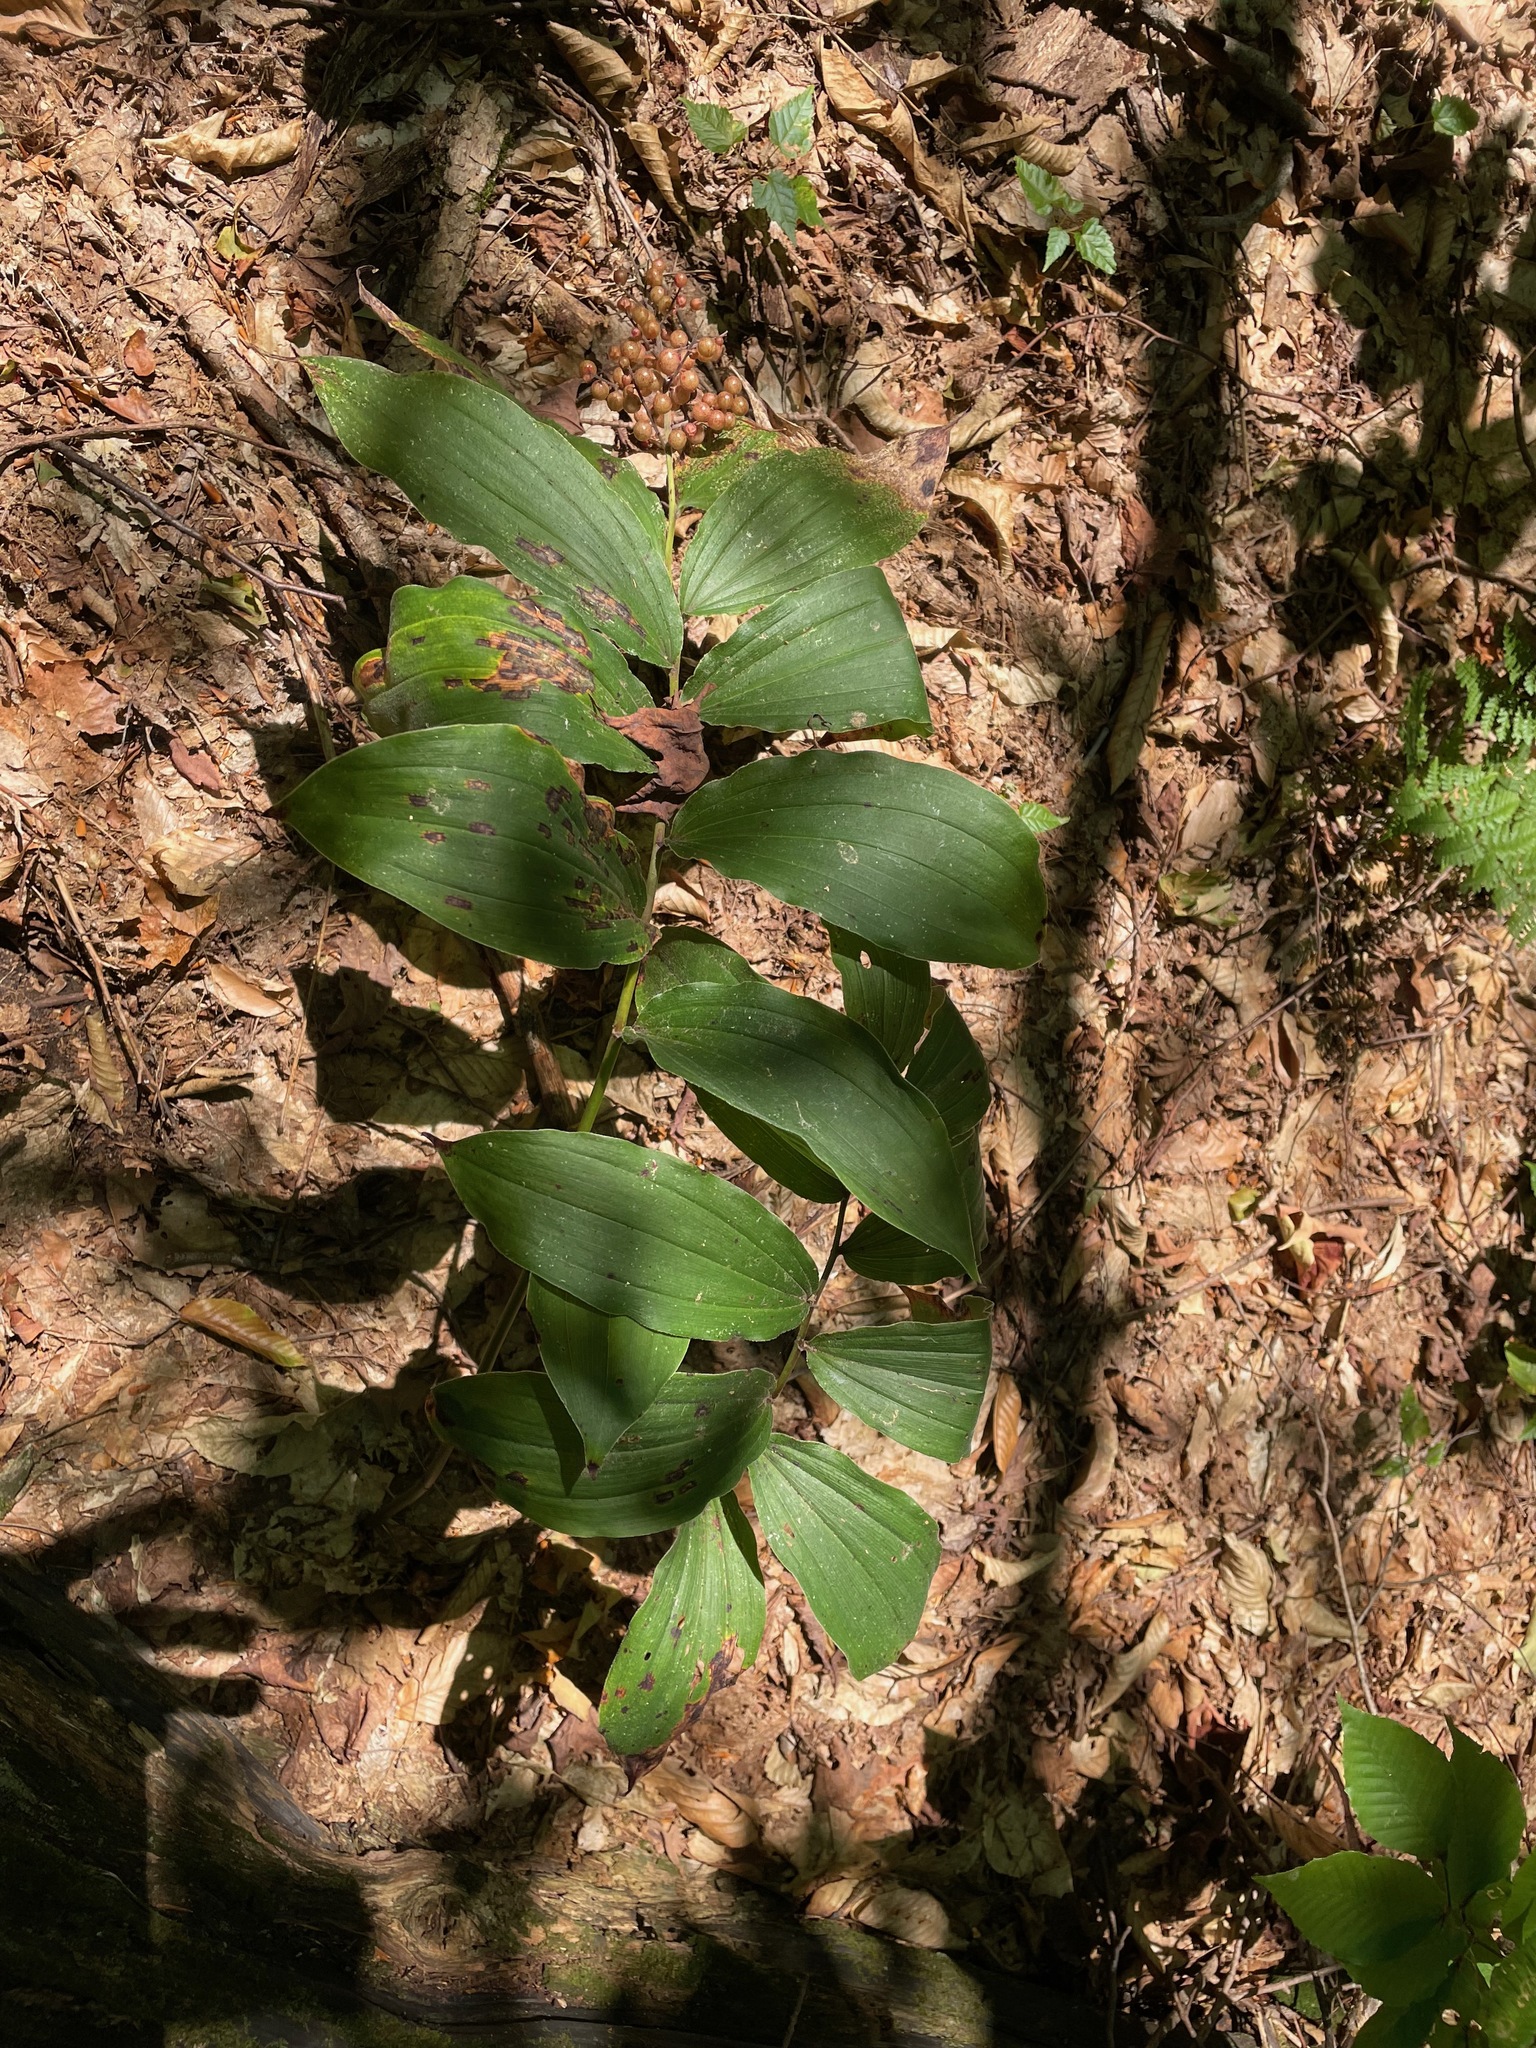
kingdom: Plantae
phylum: Tracheophyta
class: Liliopsida
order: Asparagales
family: Asparagaceae
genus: Maianthemum
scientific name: Maianthemum racemosum
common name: False spikenard
